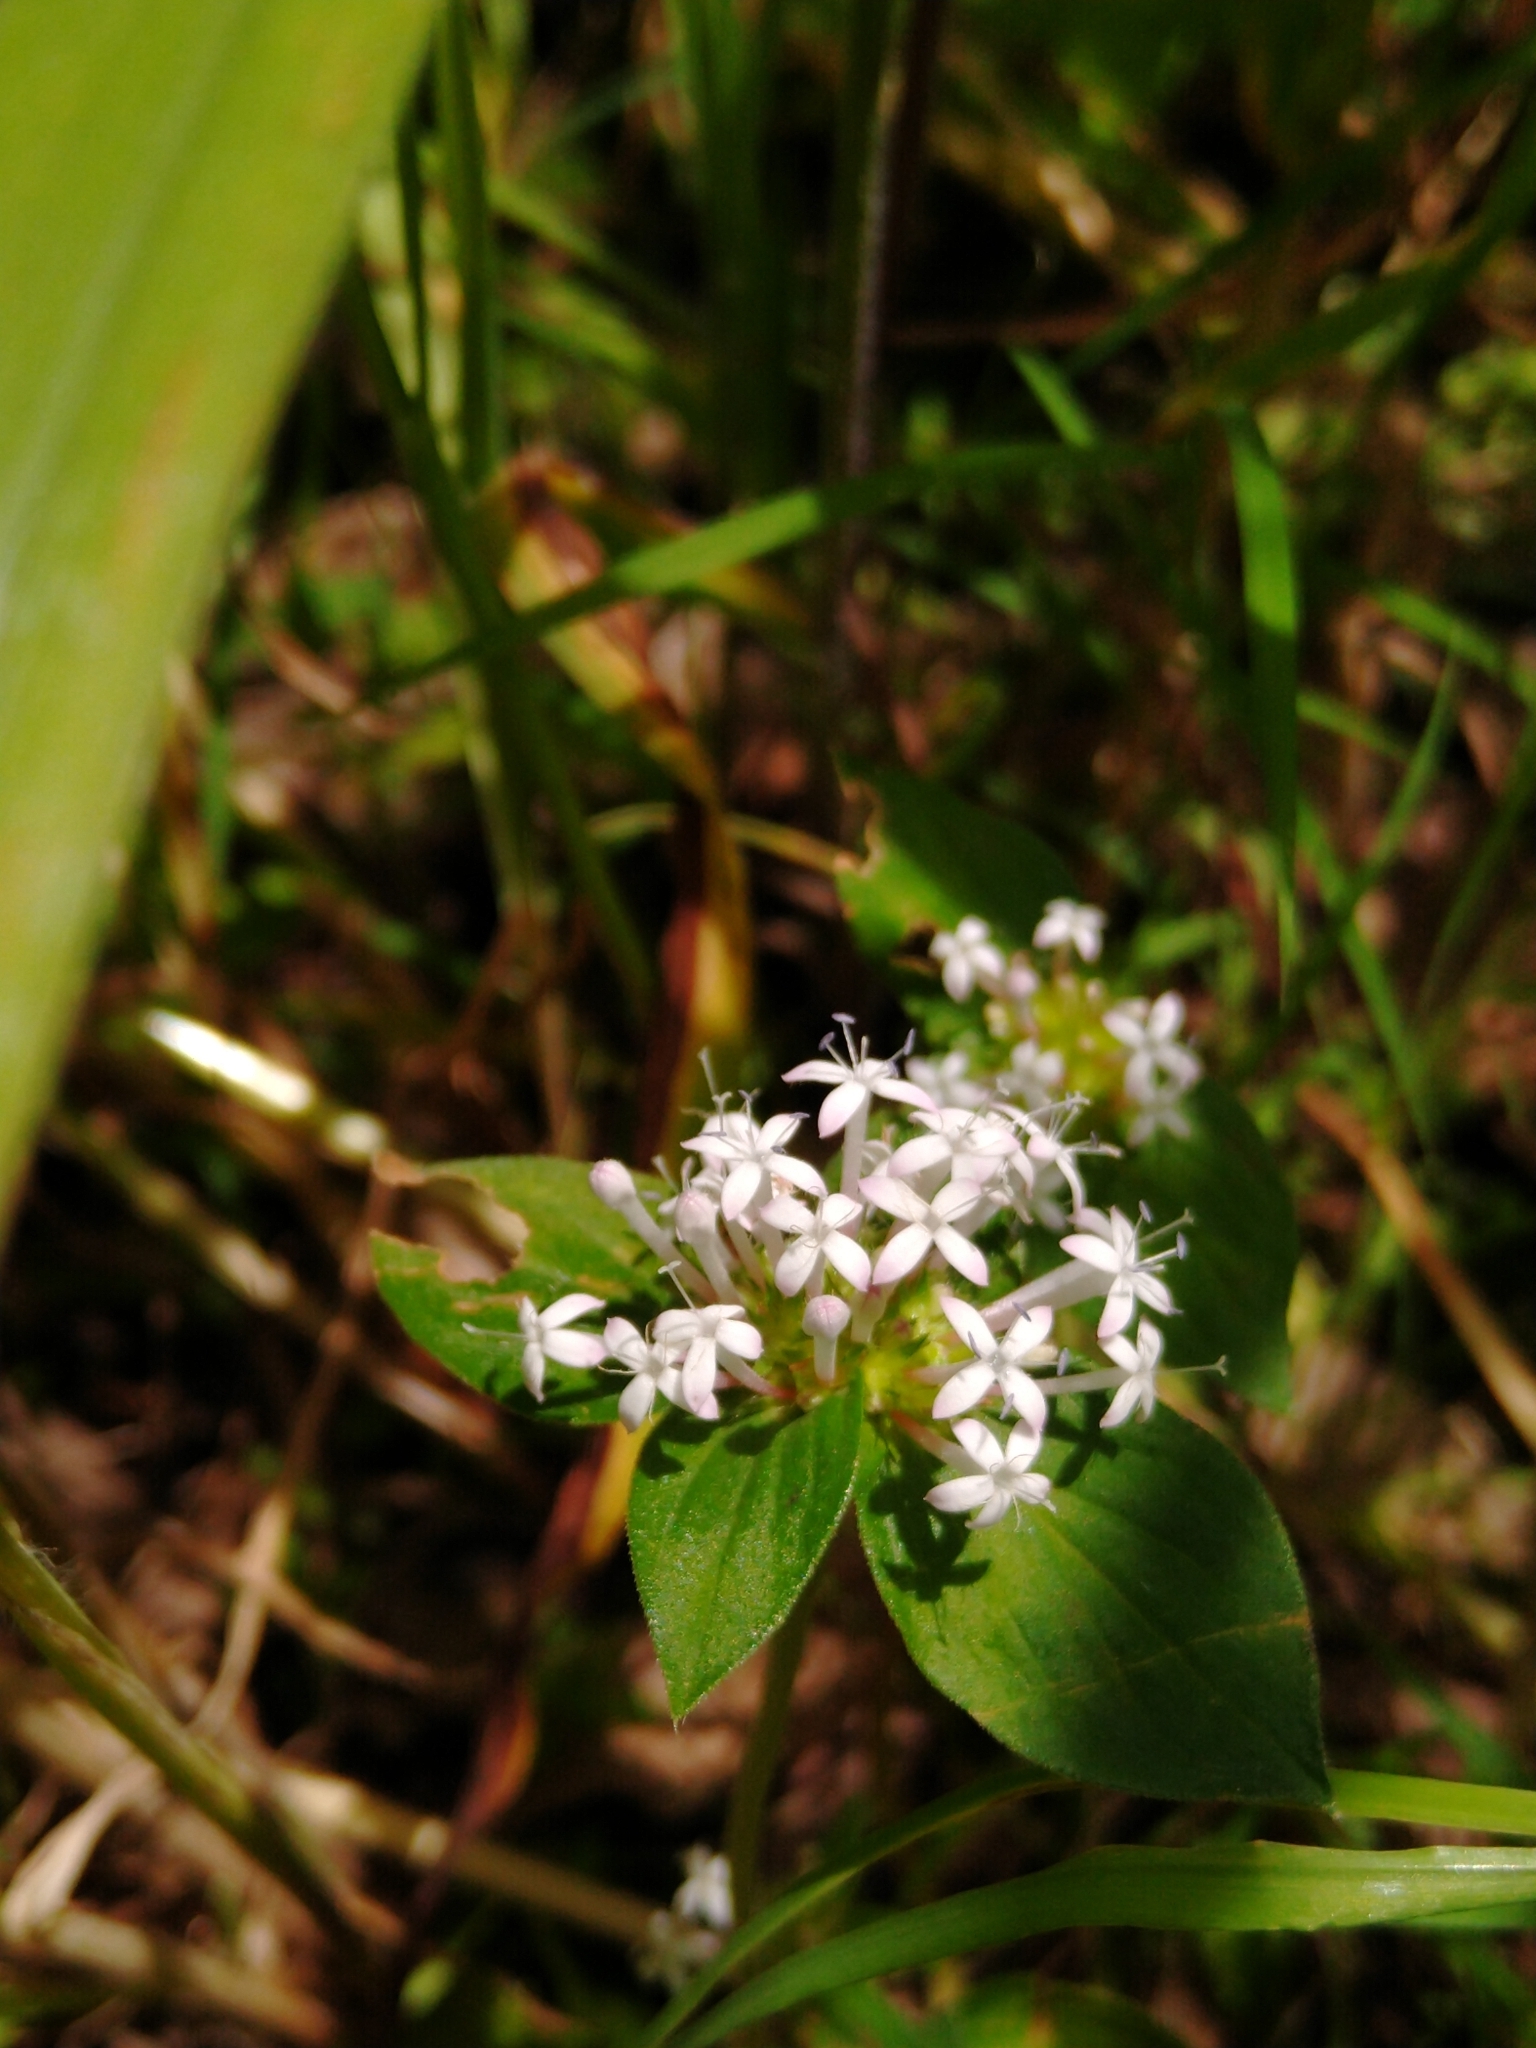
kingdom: Plantae
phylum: Tracheophyta
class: Magnoliopsida
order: Gentianales
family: Rubiaceae
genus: Crusea
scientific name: Crusea longiflora
